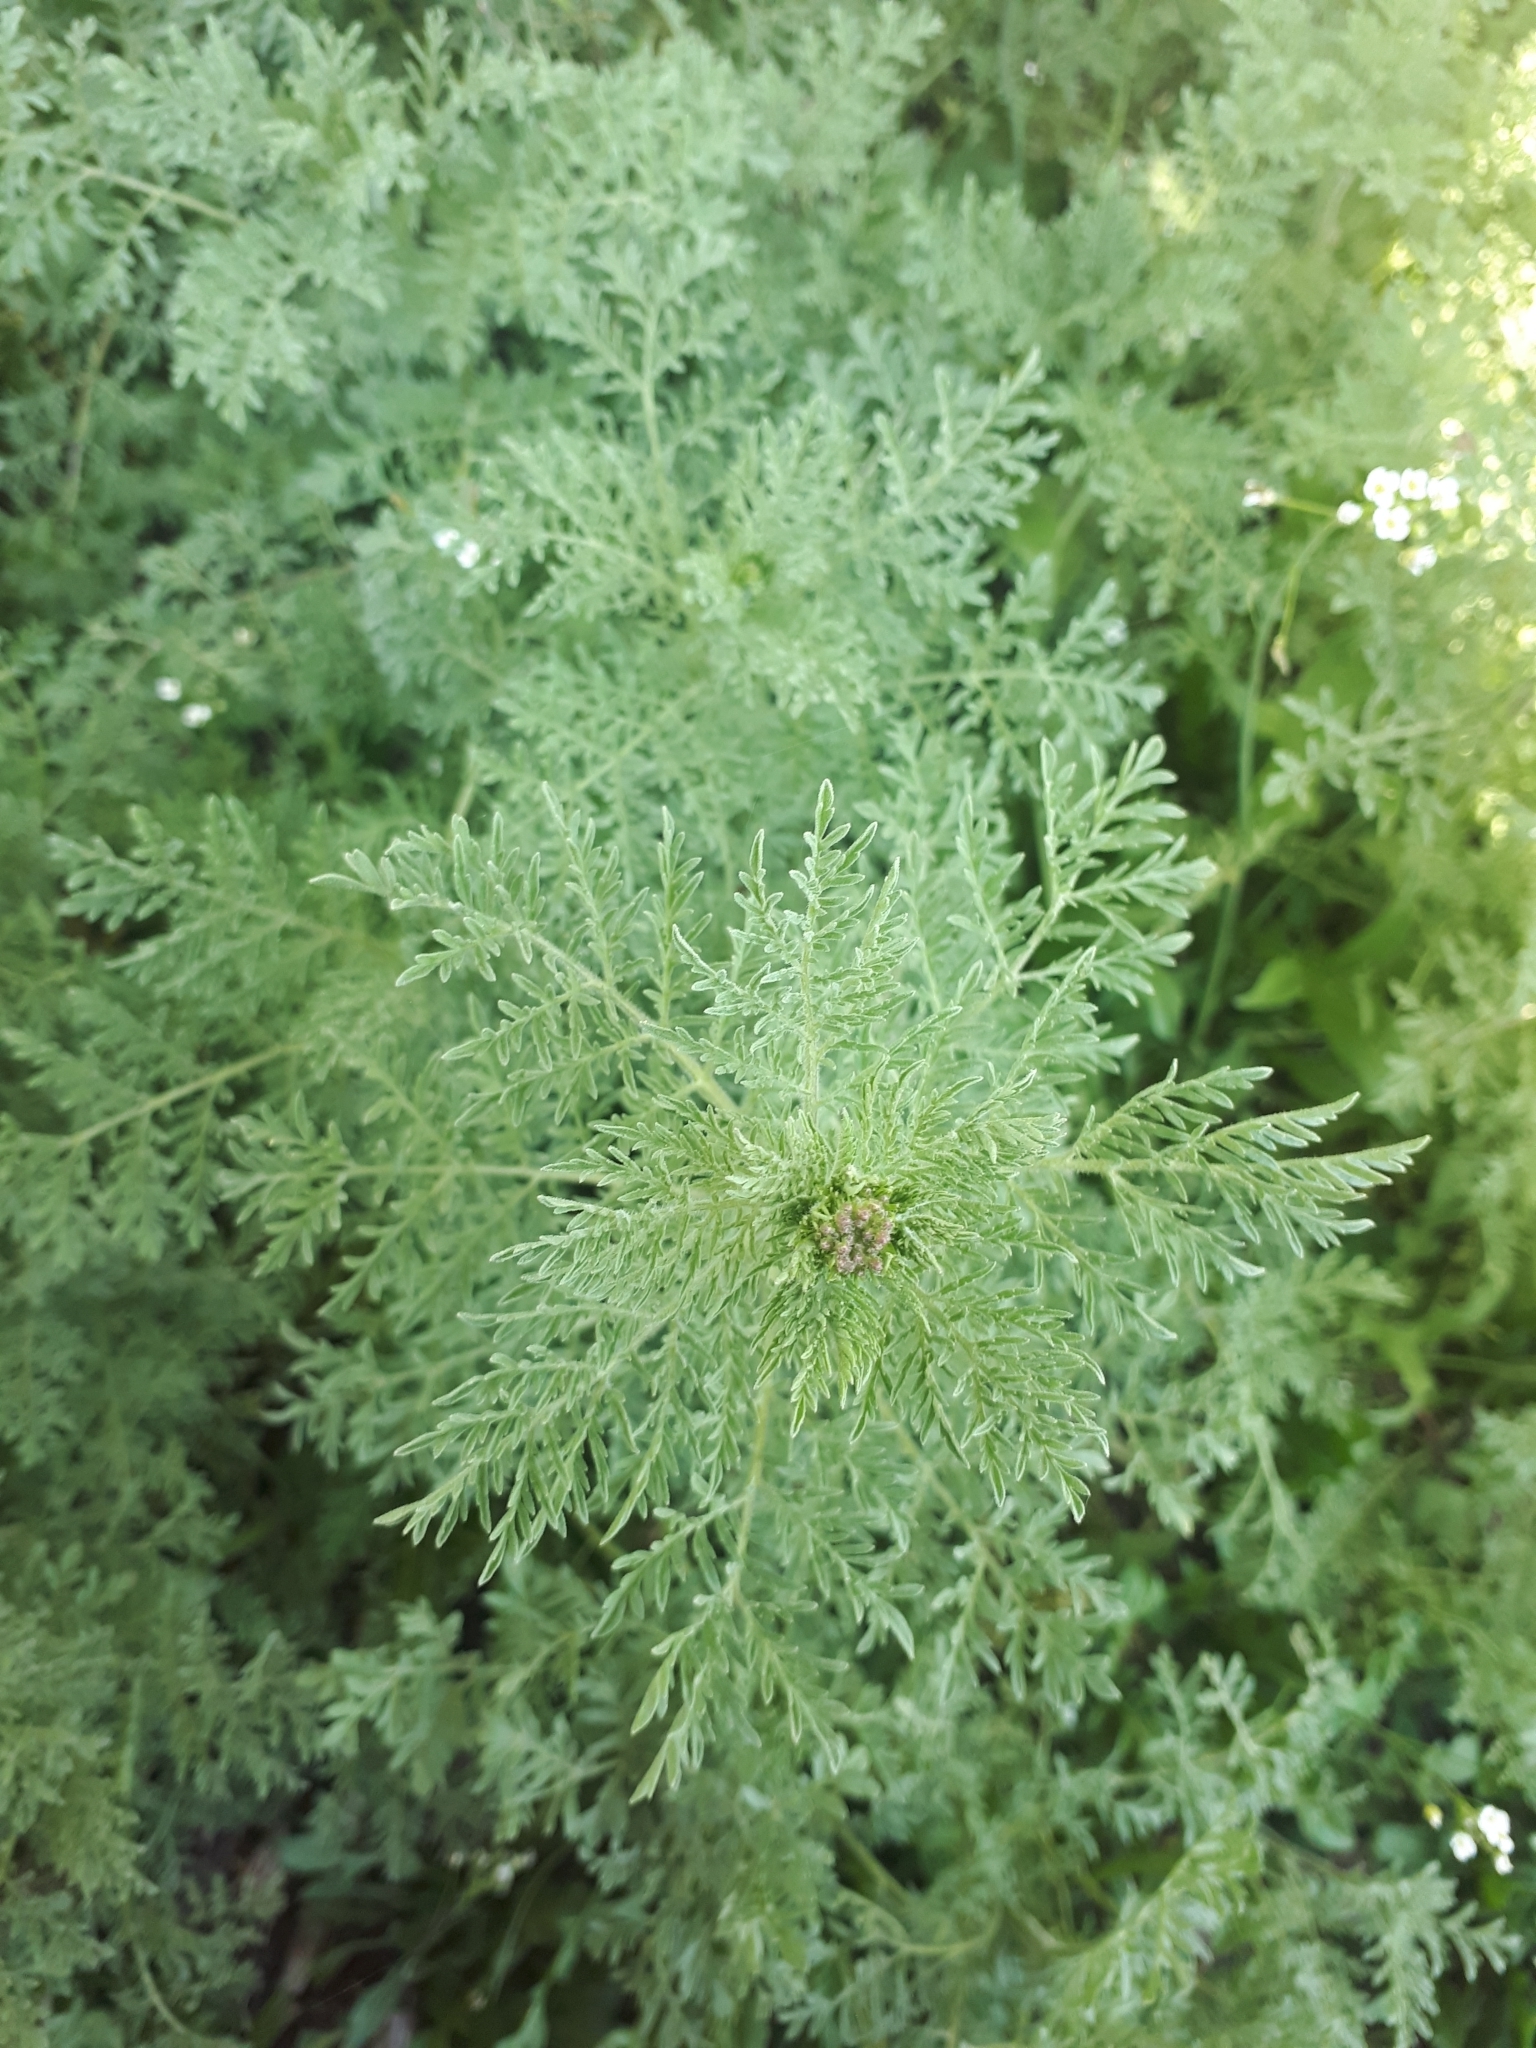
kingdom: Plantae
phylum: Tracheophyta
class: Magnoliopsida
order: Brassicales
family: Brassicaceae
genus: Descurainia
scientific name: Descurainia sophia
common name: Flixweed
